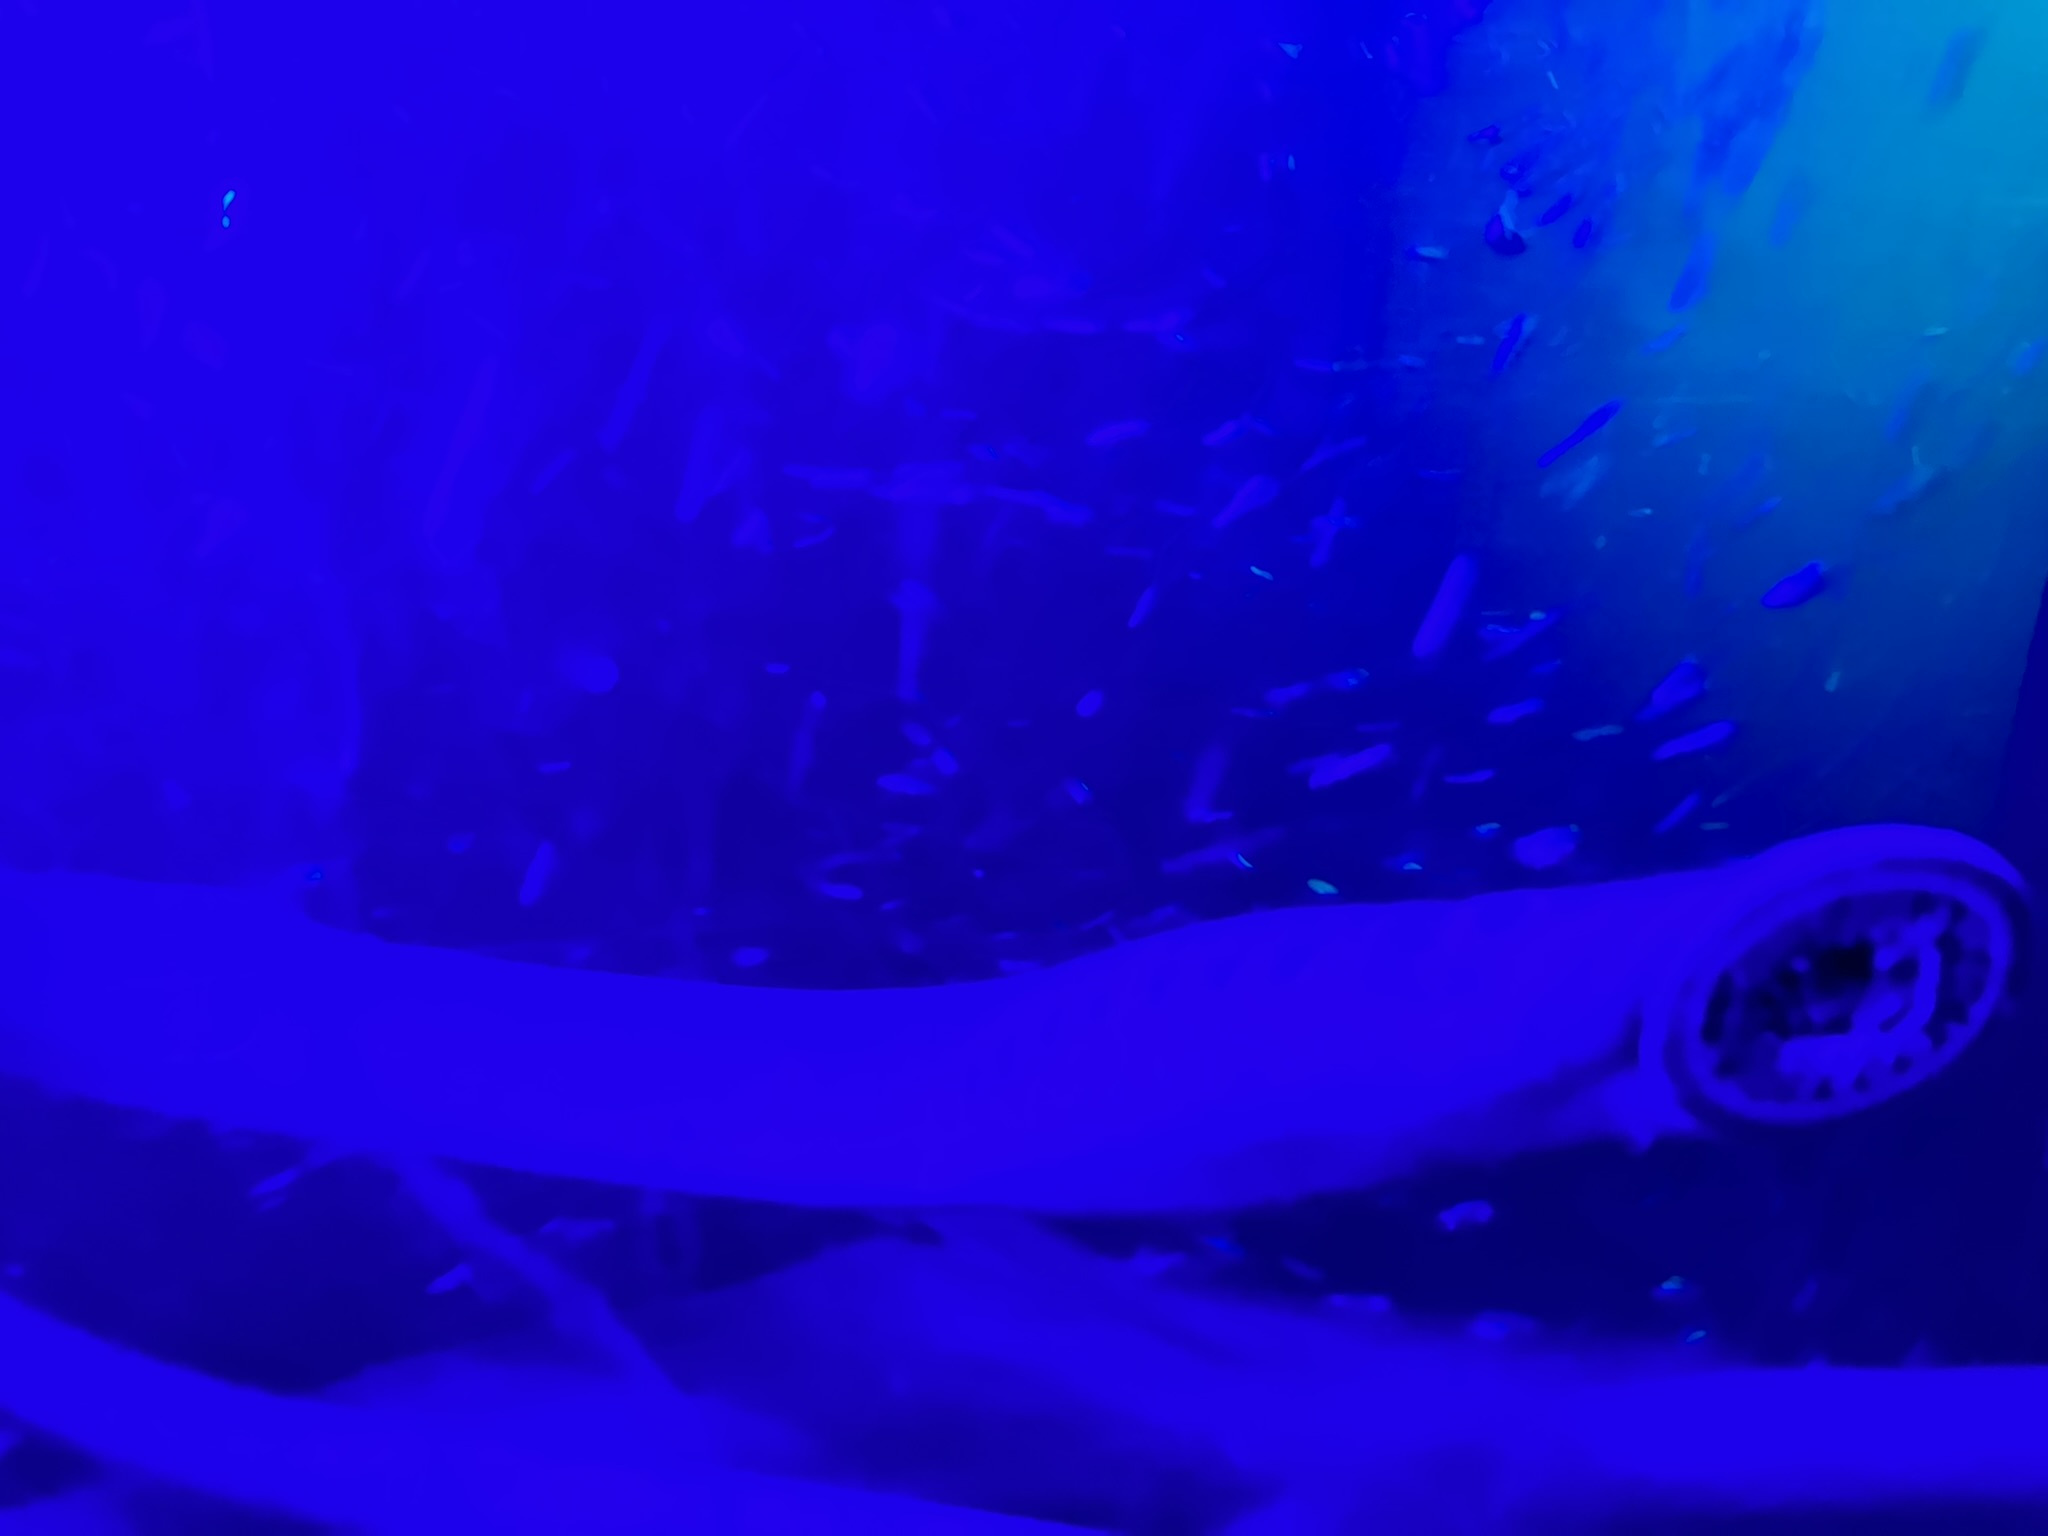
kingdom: Animalia
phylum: Chordata
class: Petromyzonti
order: Petromyzontiformes
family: Petromyzontidae
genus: Entosphenus
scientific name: Entosphenus tridentatus
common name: Pacific lamprey
